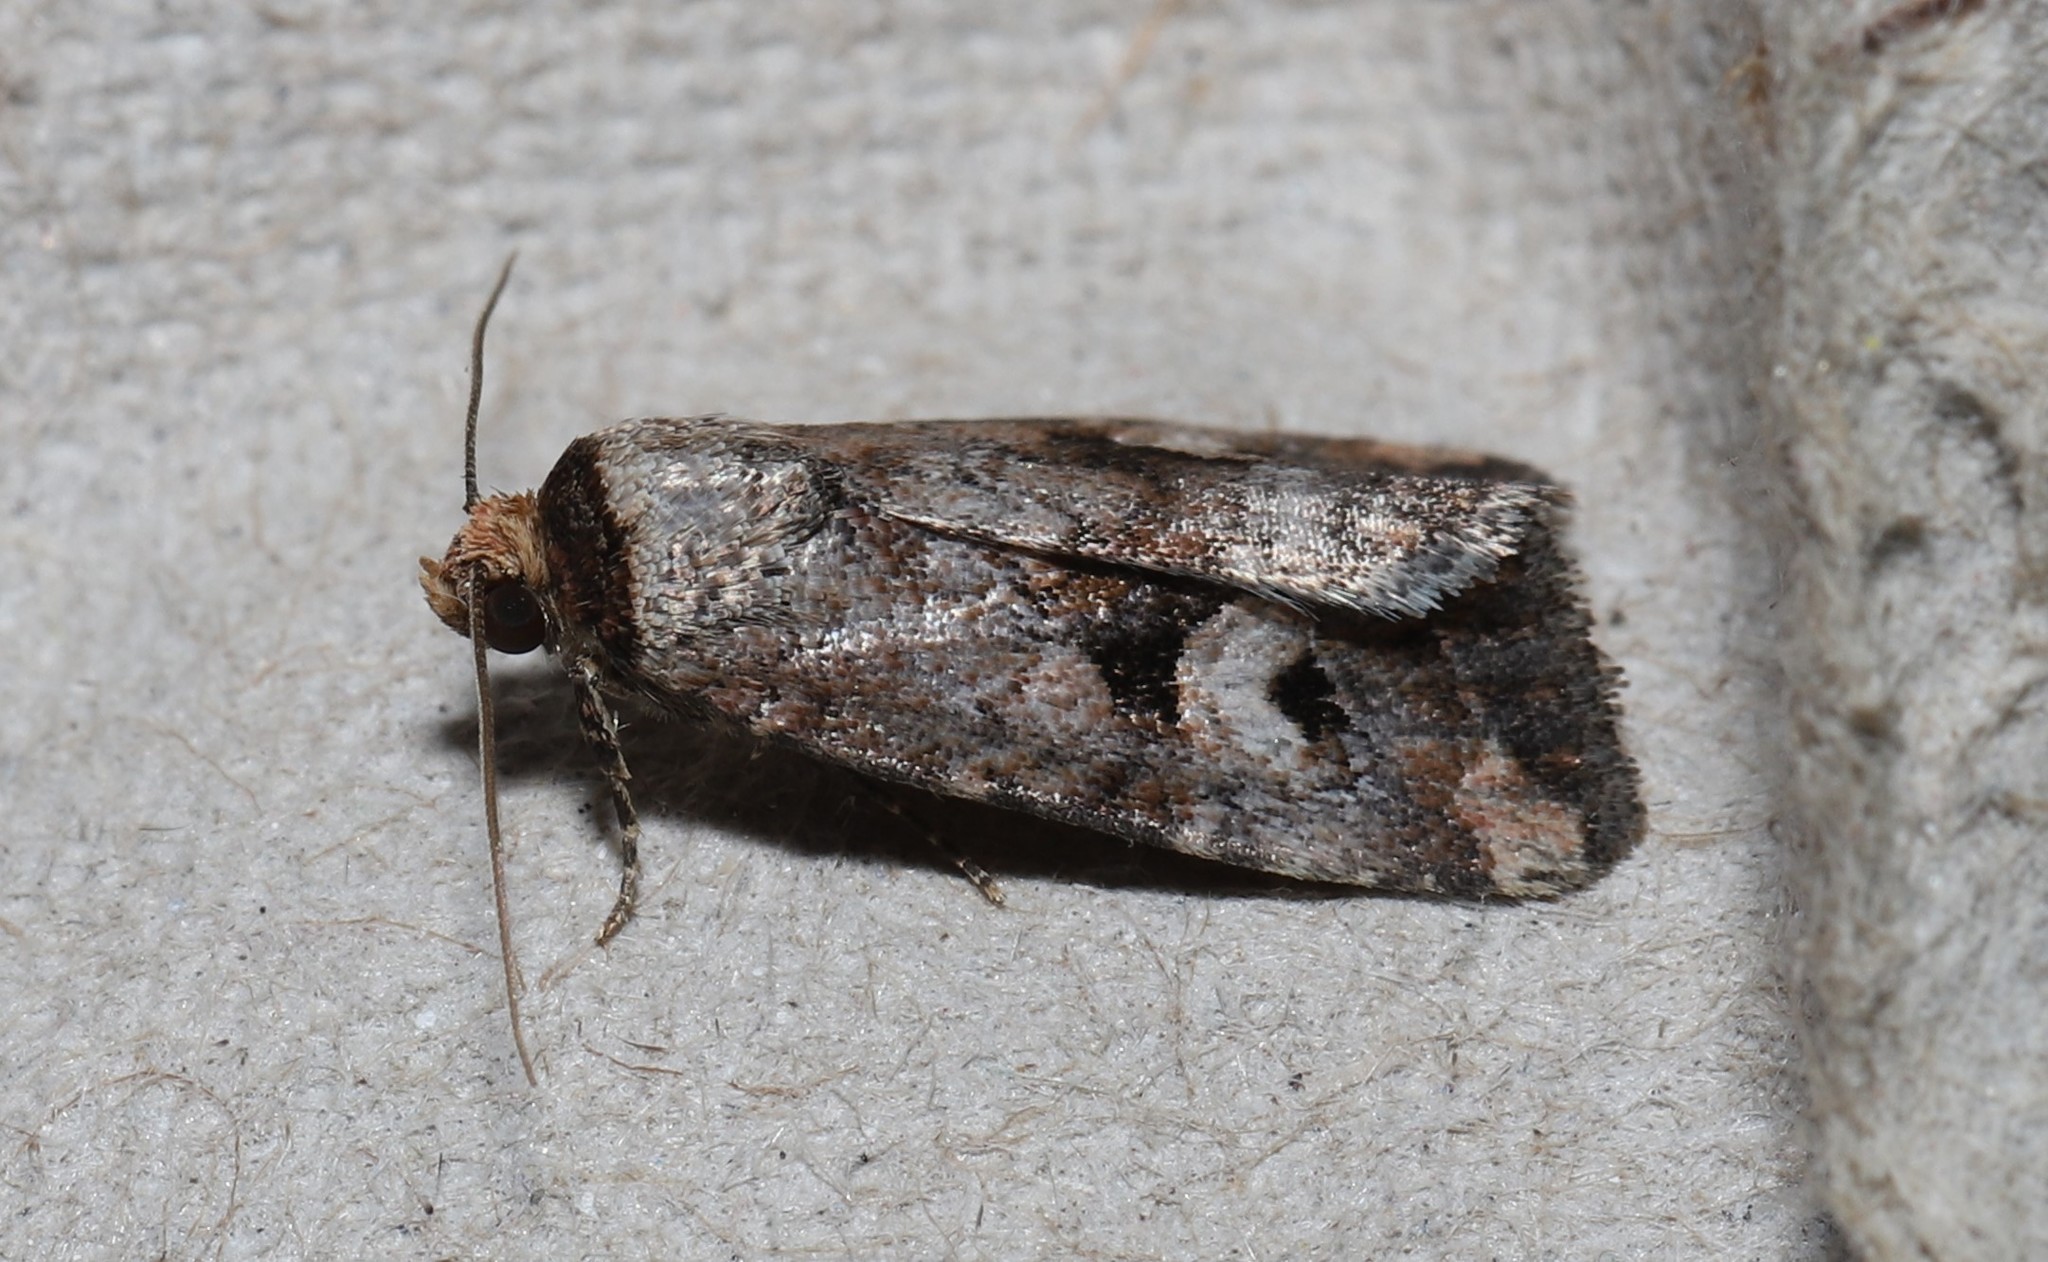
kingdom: Animalia
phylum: Arthropoda
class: Insecta
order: Lepidoptera
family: Noctuidae
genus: Elaphria
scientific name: Elaphria alapallida
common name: Pale-winged midget
